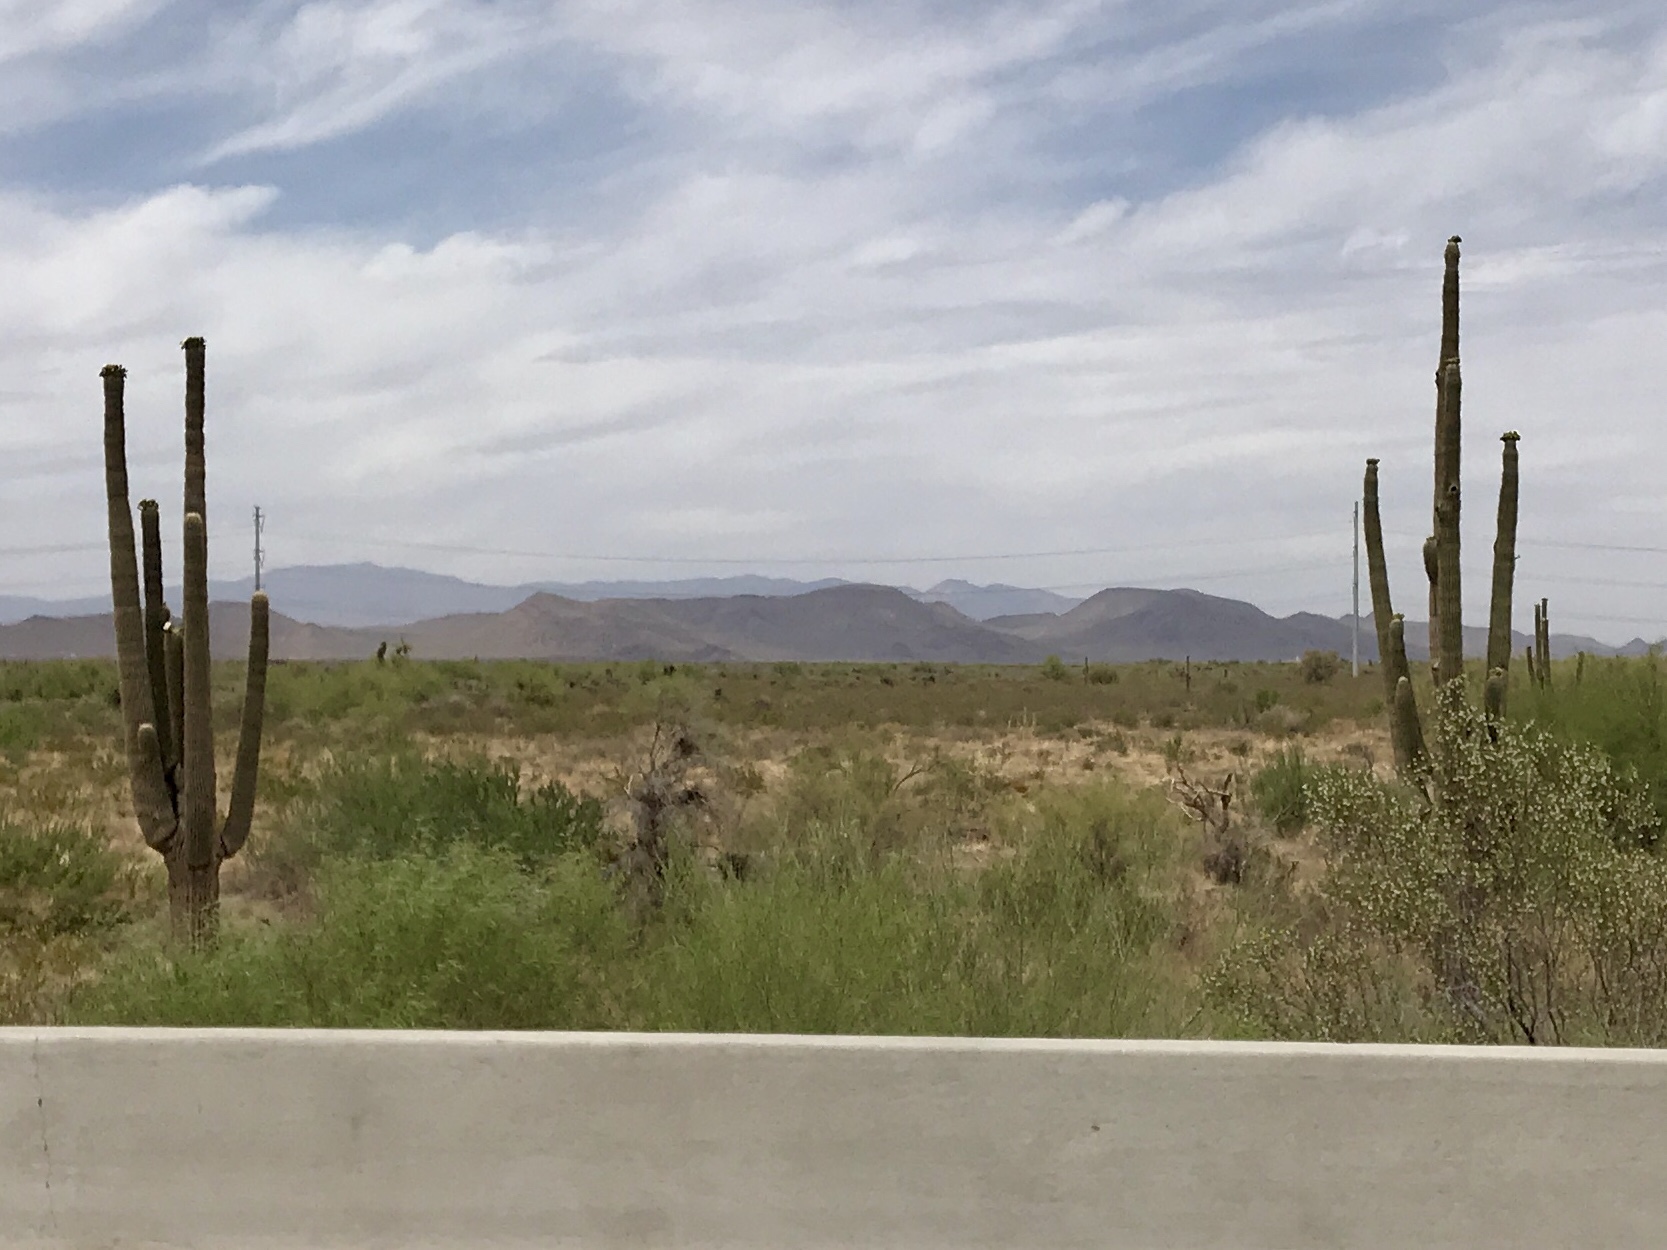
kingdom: Plantae
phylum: Tracheophyta
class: Magnoliopsida
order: Caryophyllales
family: Cactaceae
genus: Carnegiea
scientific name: Carnegiea gigantea
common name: Saguaro
